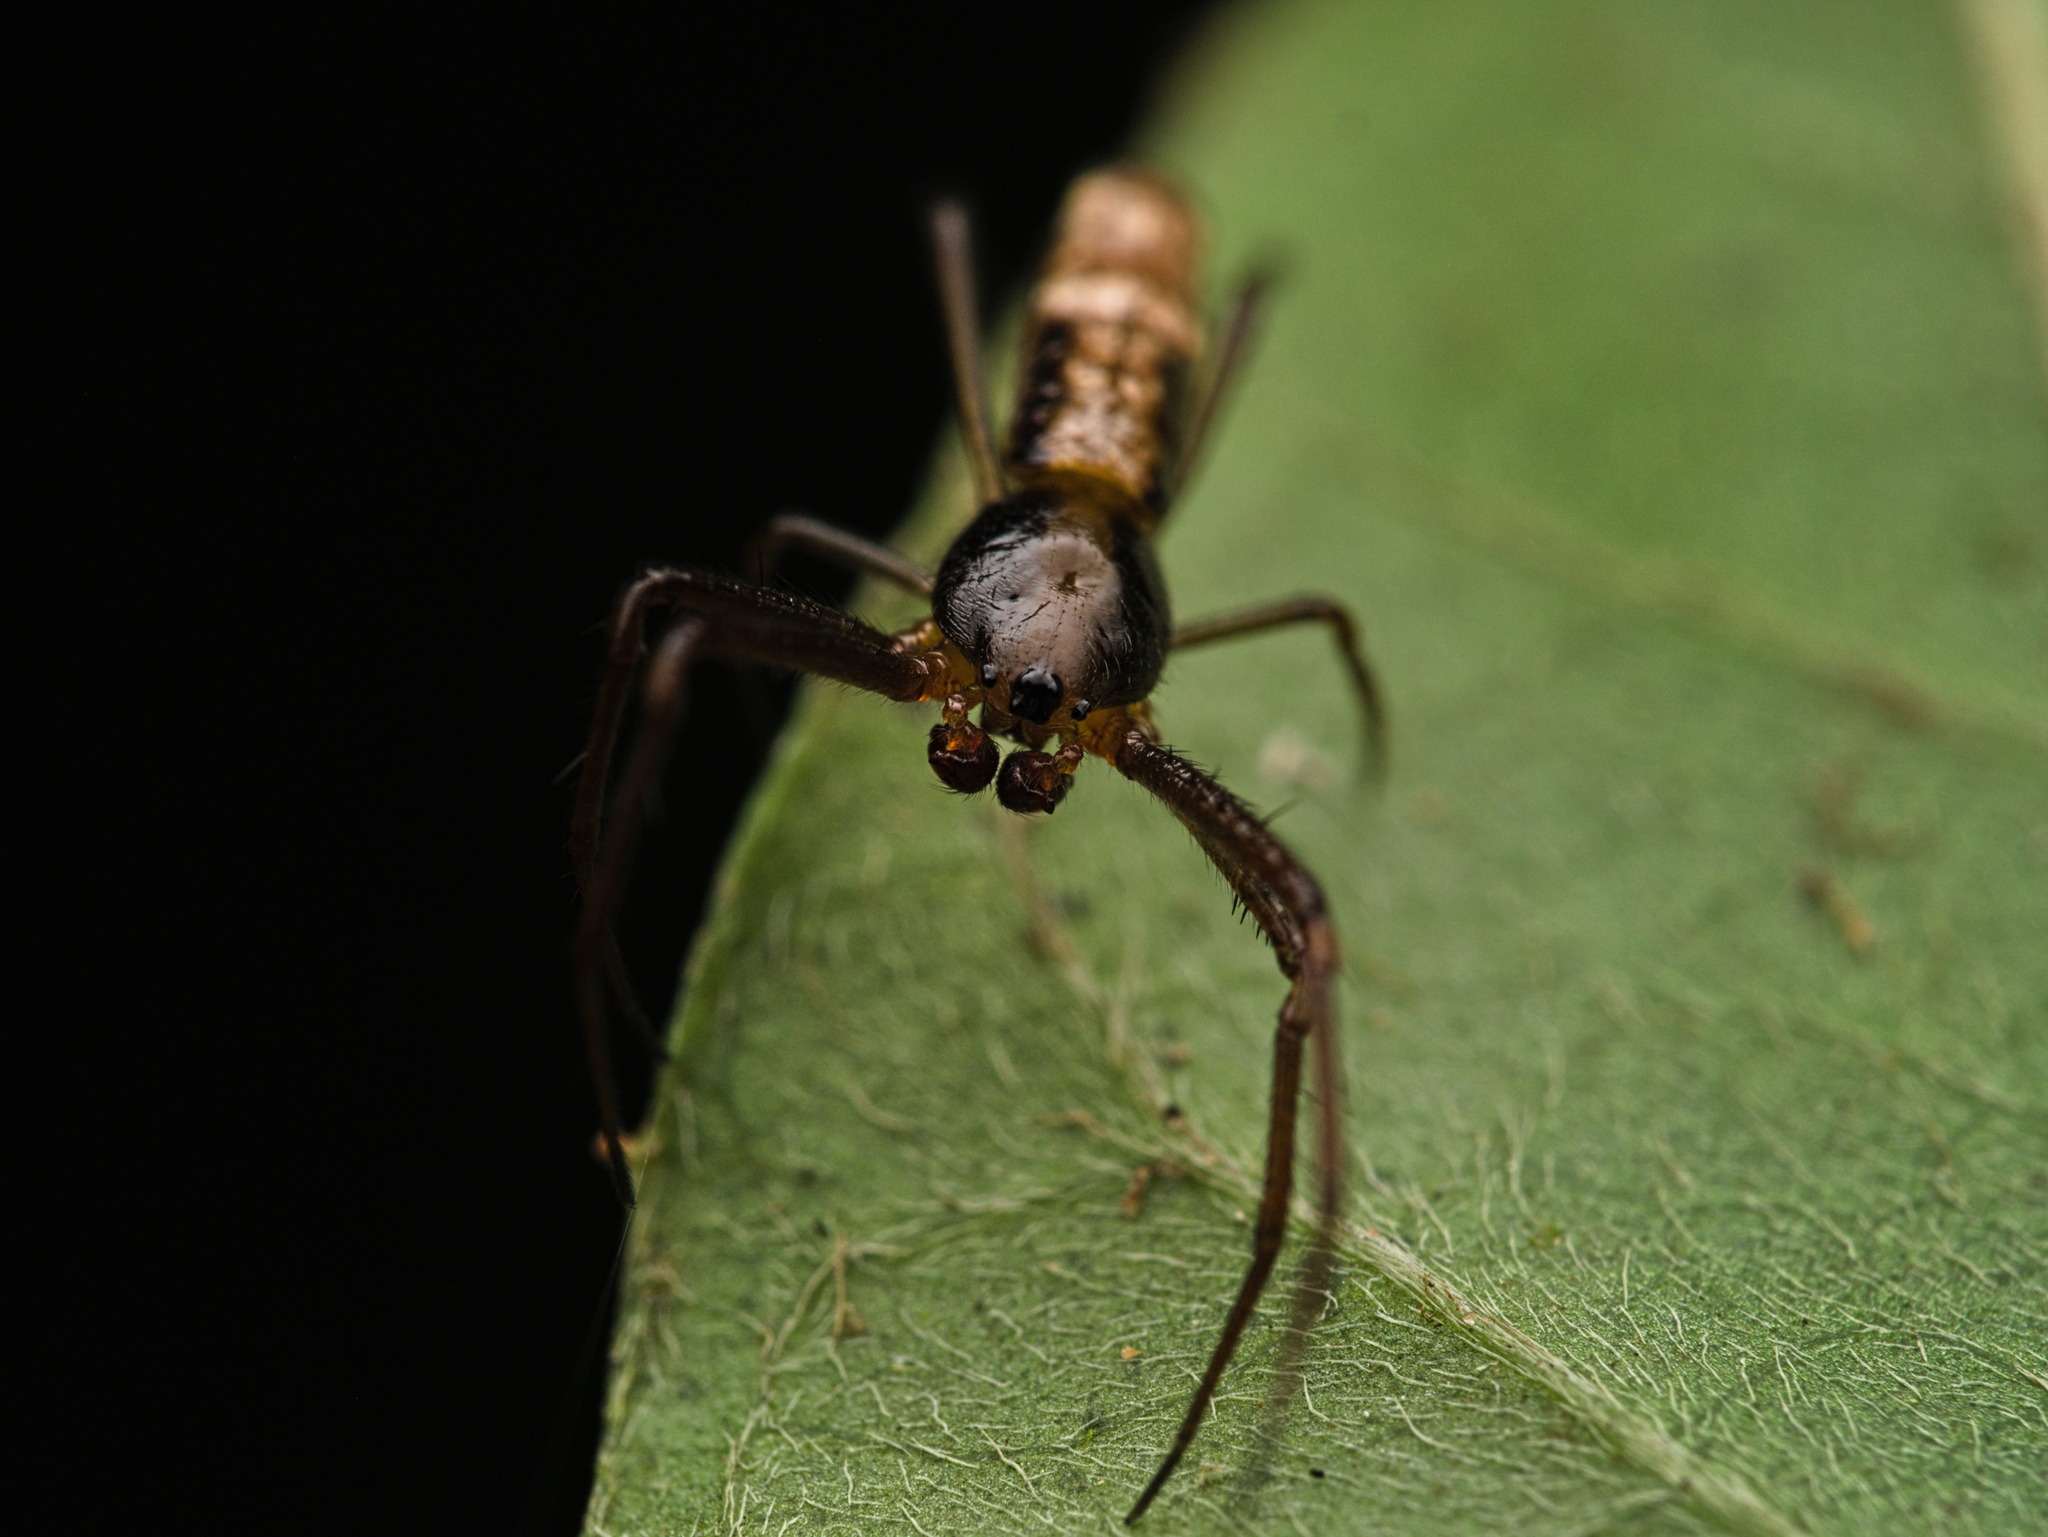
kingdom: Animalia
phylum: Arthropoda
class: Arachnida
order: Araneae
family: Araneidae
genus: Micrathena
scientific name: Micrathena lucasi
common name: Orb weavers
